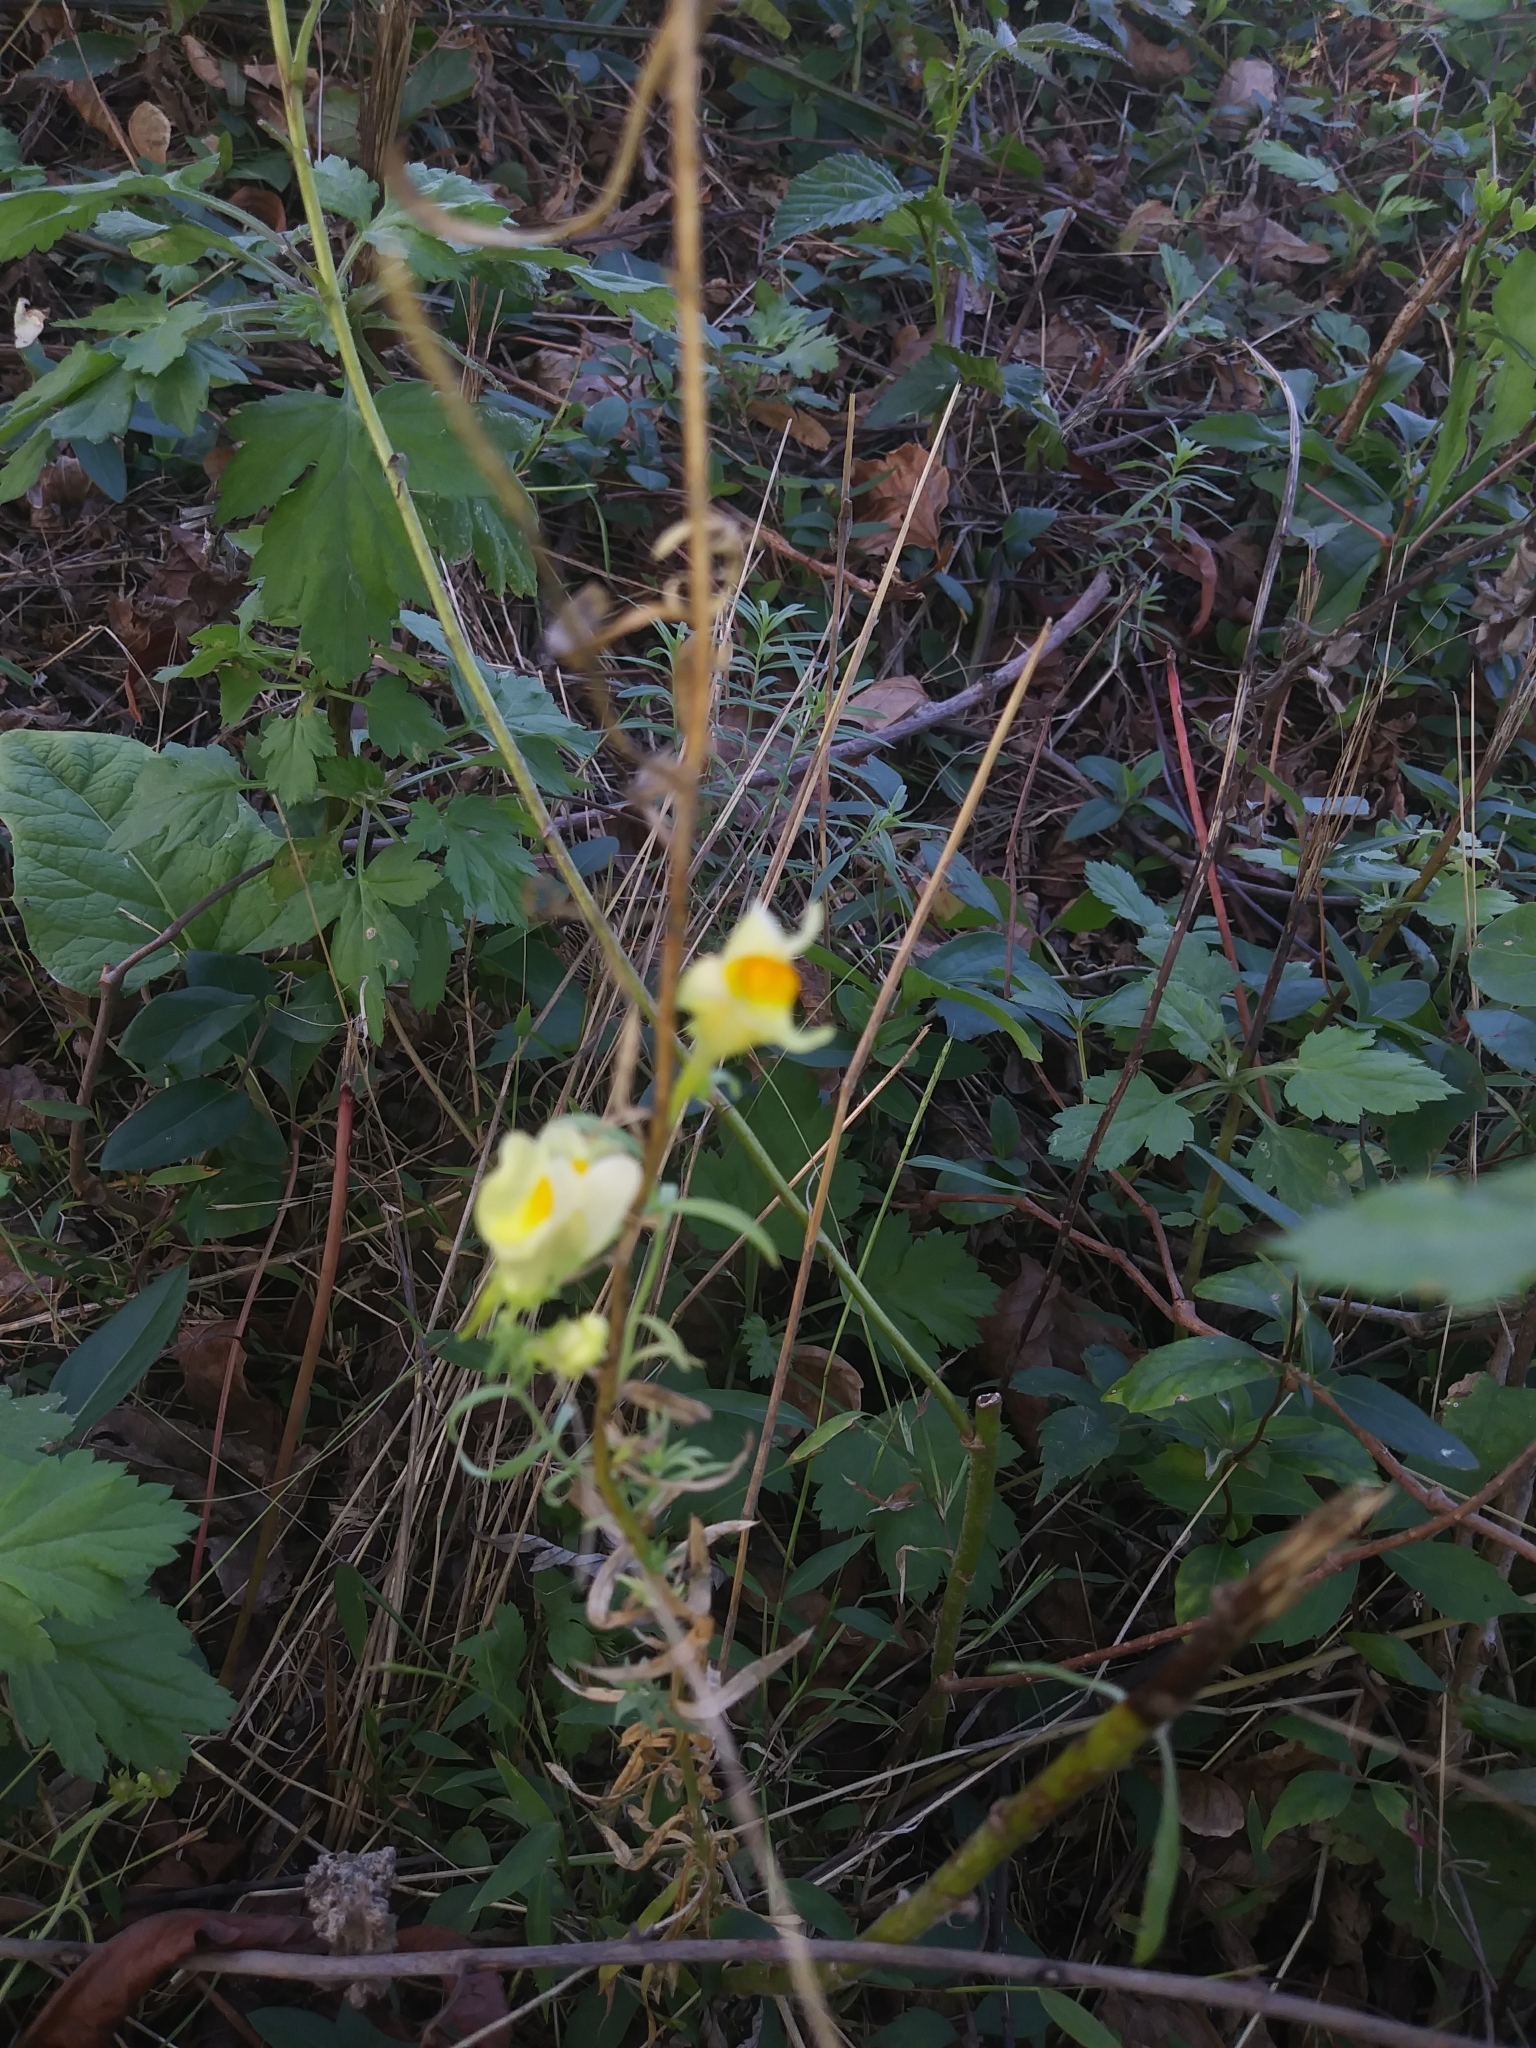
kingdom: Plantae
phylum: Tracheophyta
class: Magnoliopsida
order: Lamiales
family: Plantaginaceae
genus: Linaria
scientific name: Linaria vulgaris
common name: Butter and eggs
